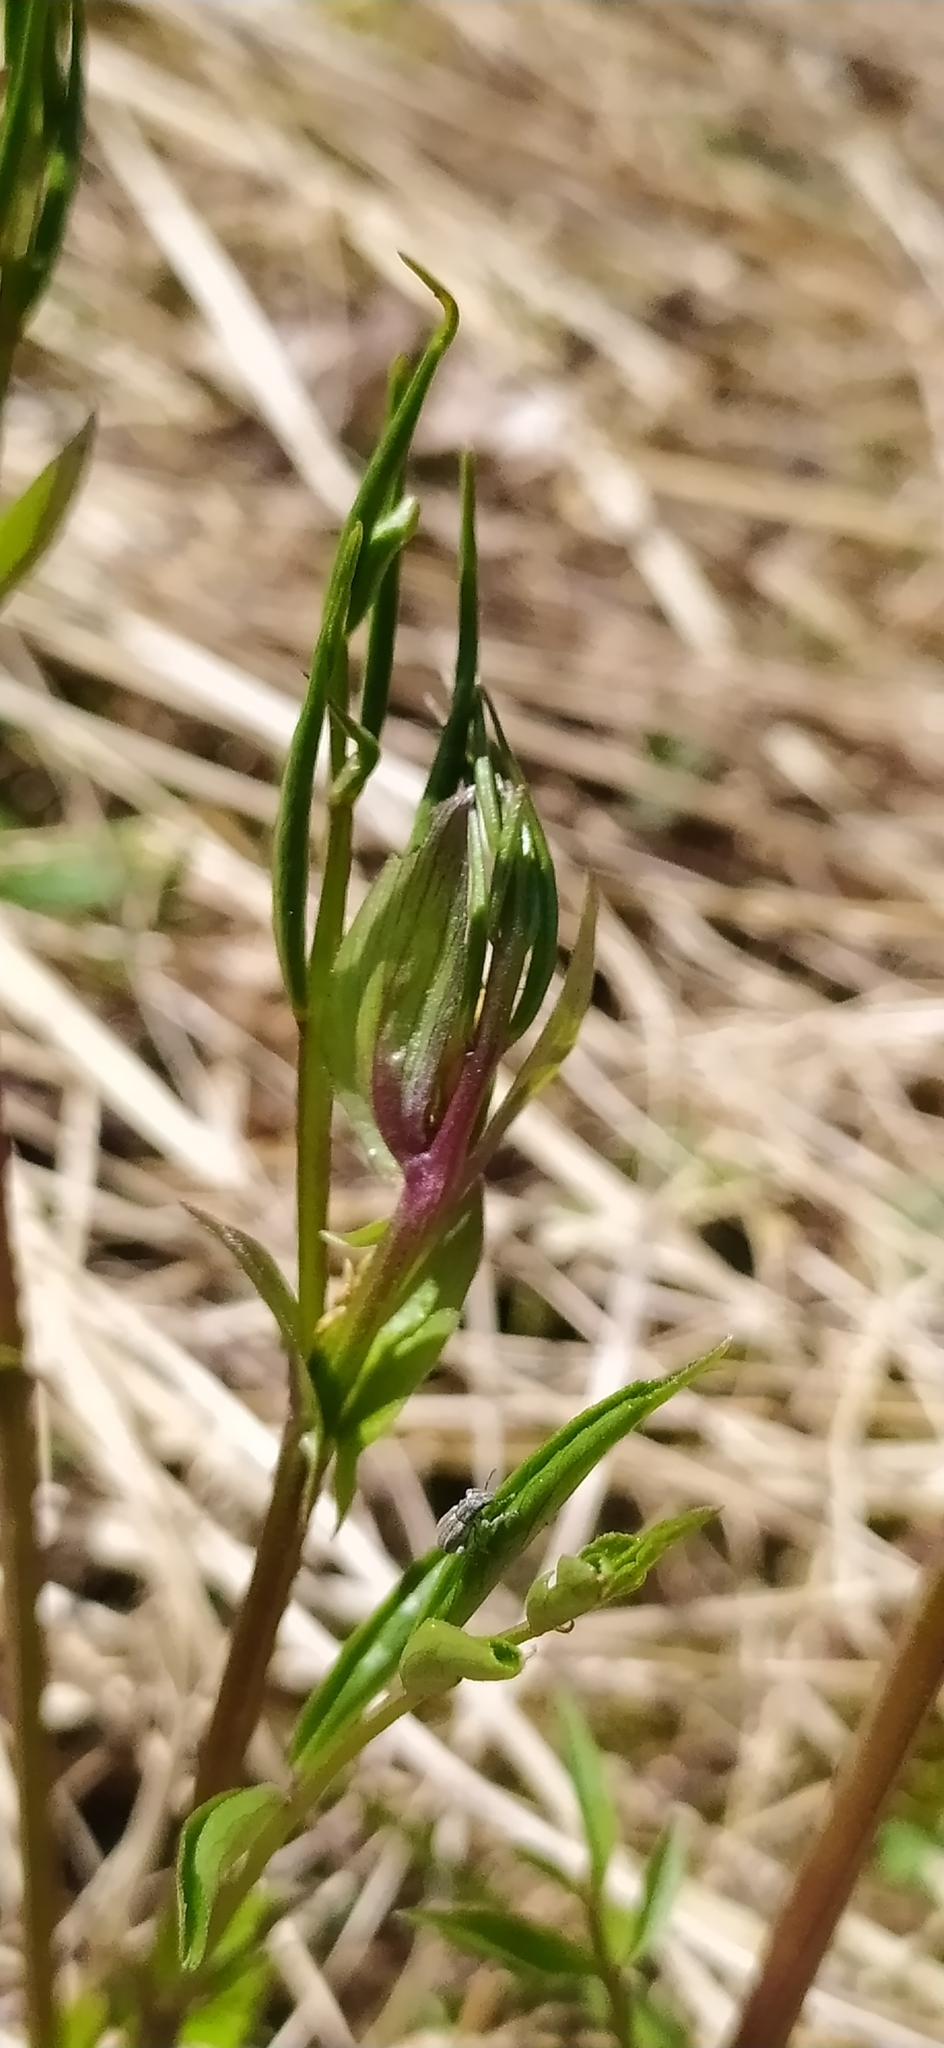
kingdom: Plantae
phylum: Tracheophyta
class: Magnoliopsida
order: Fabales
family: Fabaceae
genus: Lathyrus
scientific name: Lathyrus vernus
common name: Spring pea
